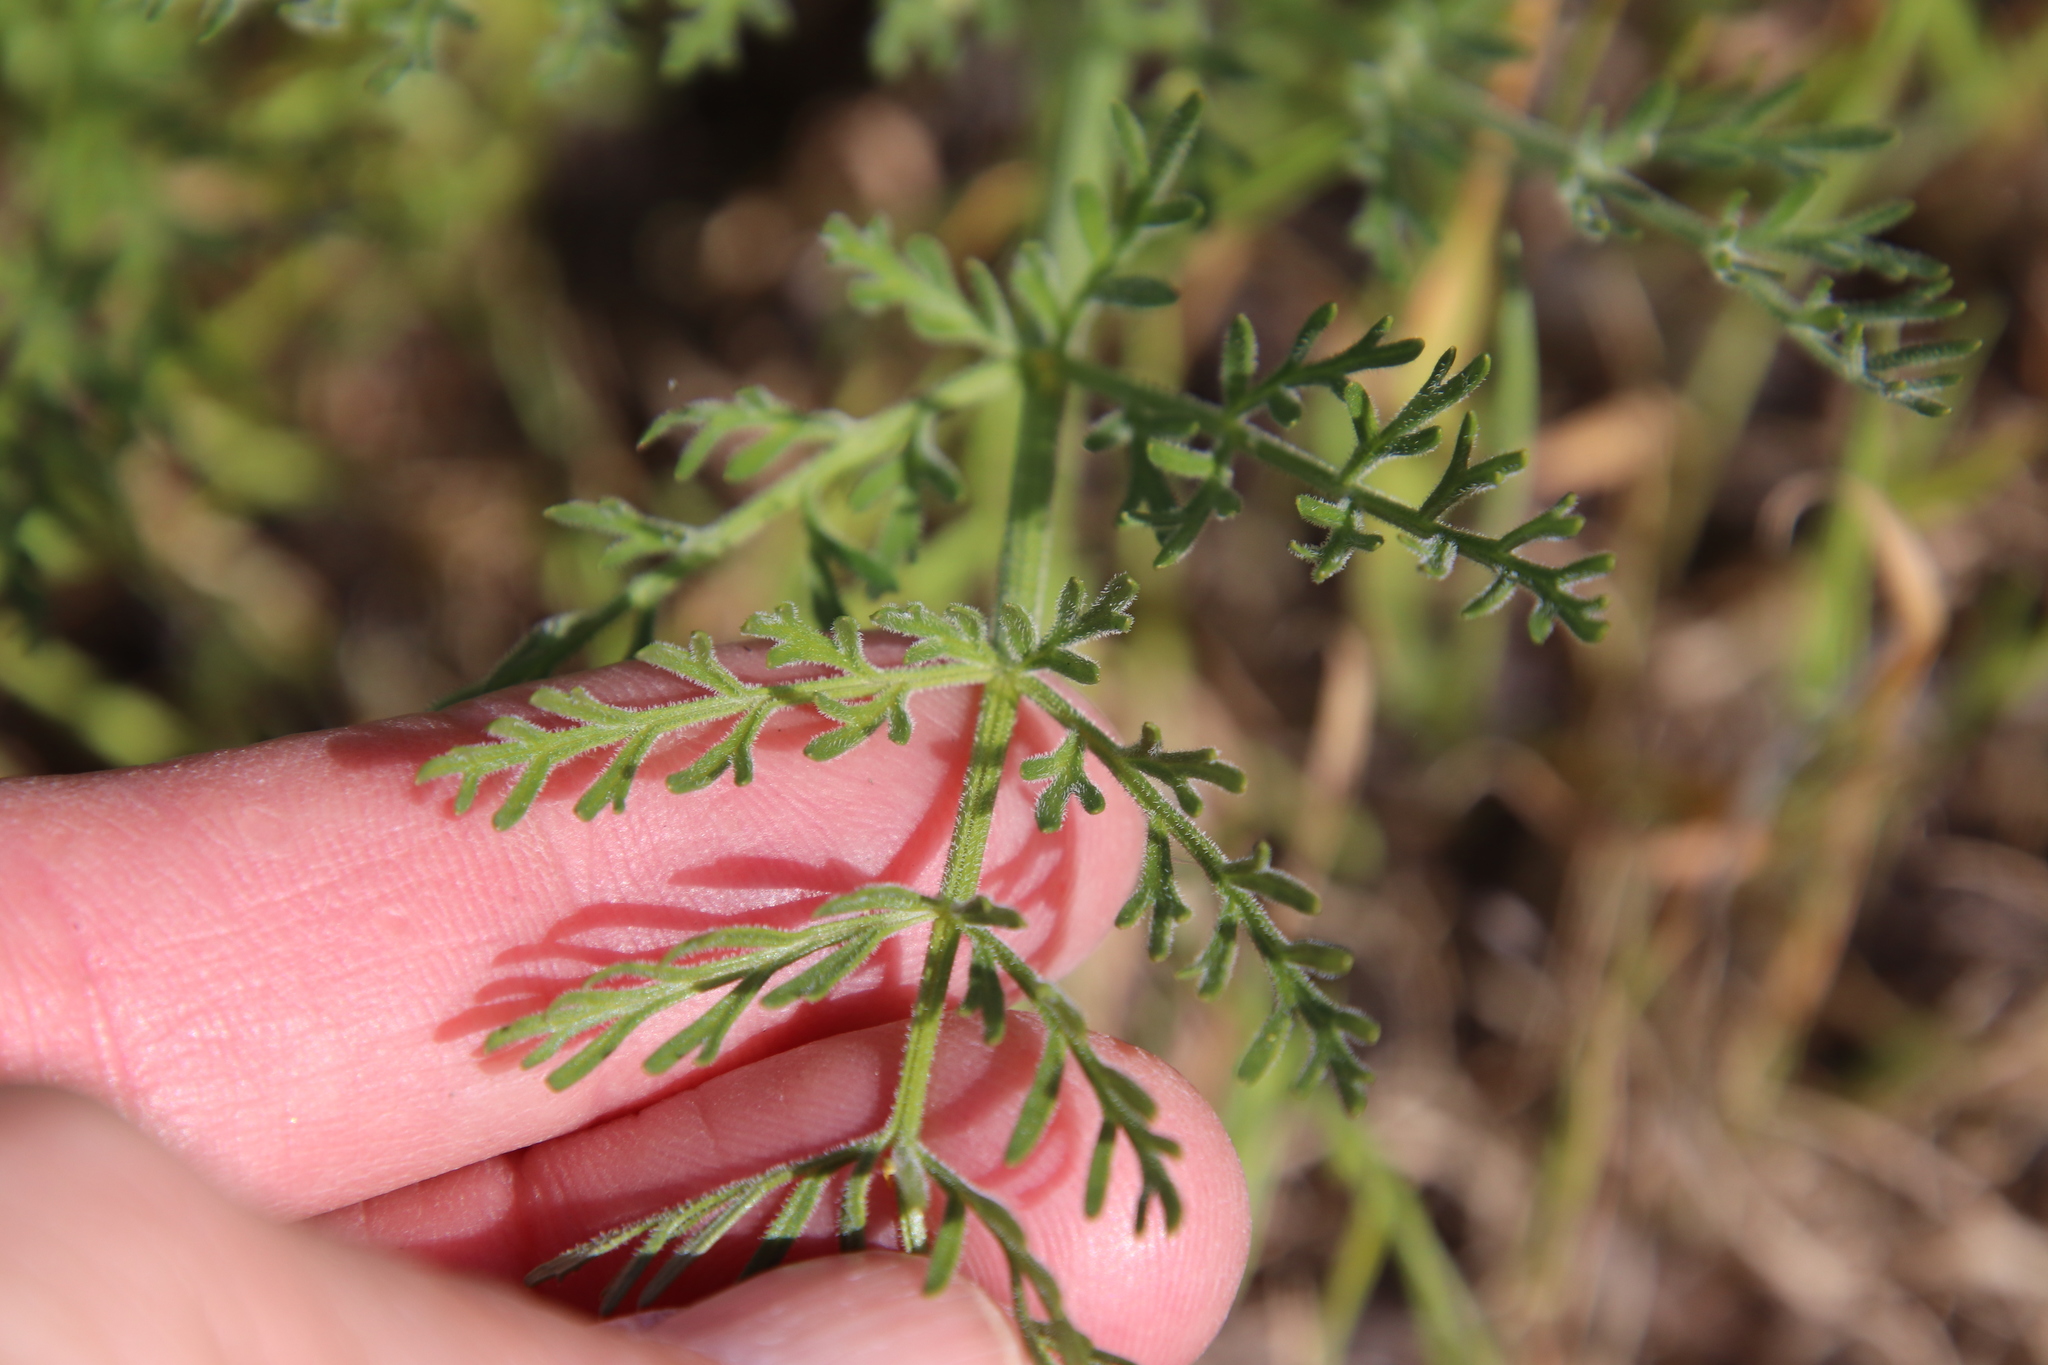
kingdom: Plantae
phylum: Tracheophyta
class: Magnoliopsida
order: Apiales
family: Apiaceae
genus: Lomatium
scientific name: Lomatium utriculatum
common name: Fine-leaf desert-parsley
